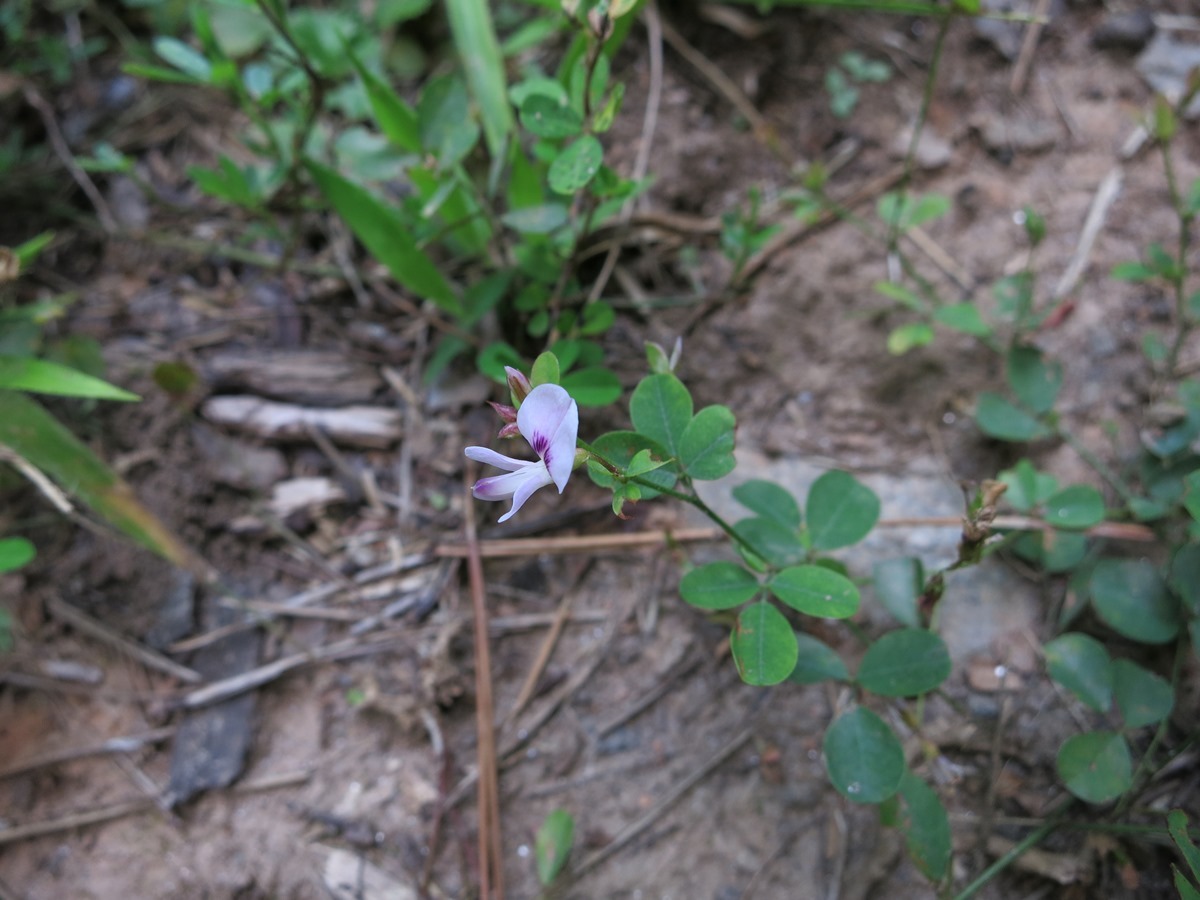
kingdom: Plantae
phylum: Tracheophyta
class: Magnoliopsida
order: Fabales
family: Fabaceae
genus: Lespedeza
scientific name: Lespedeza repens
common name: Creeping bush-clover
